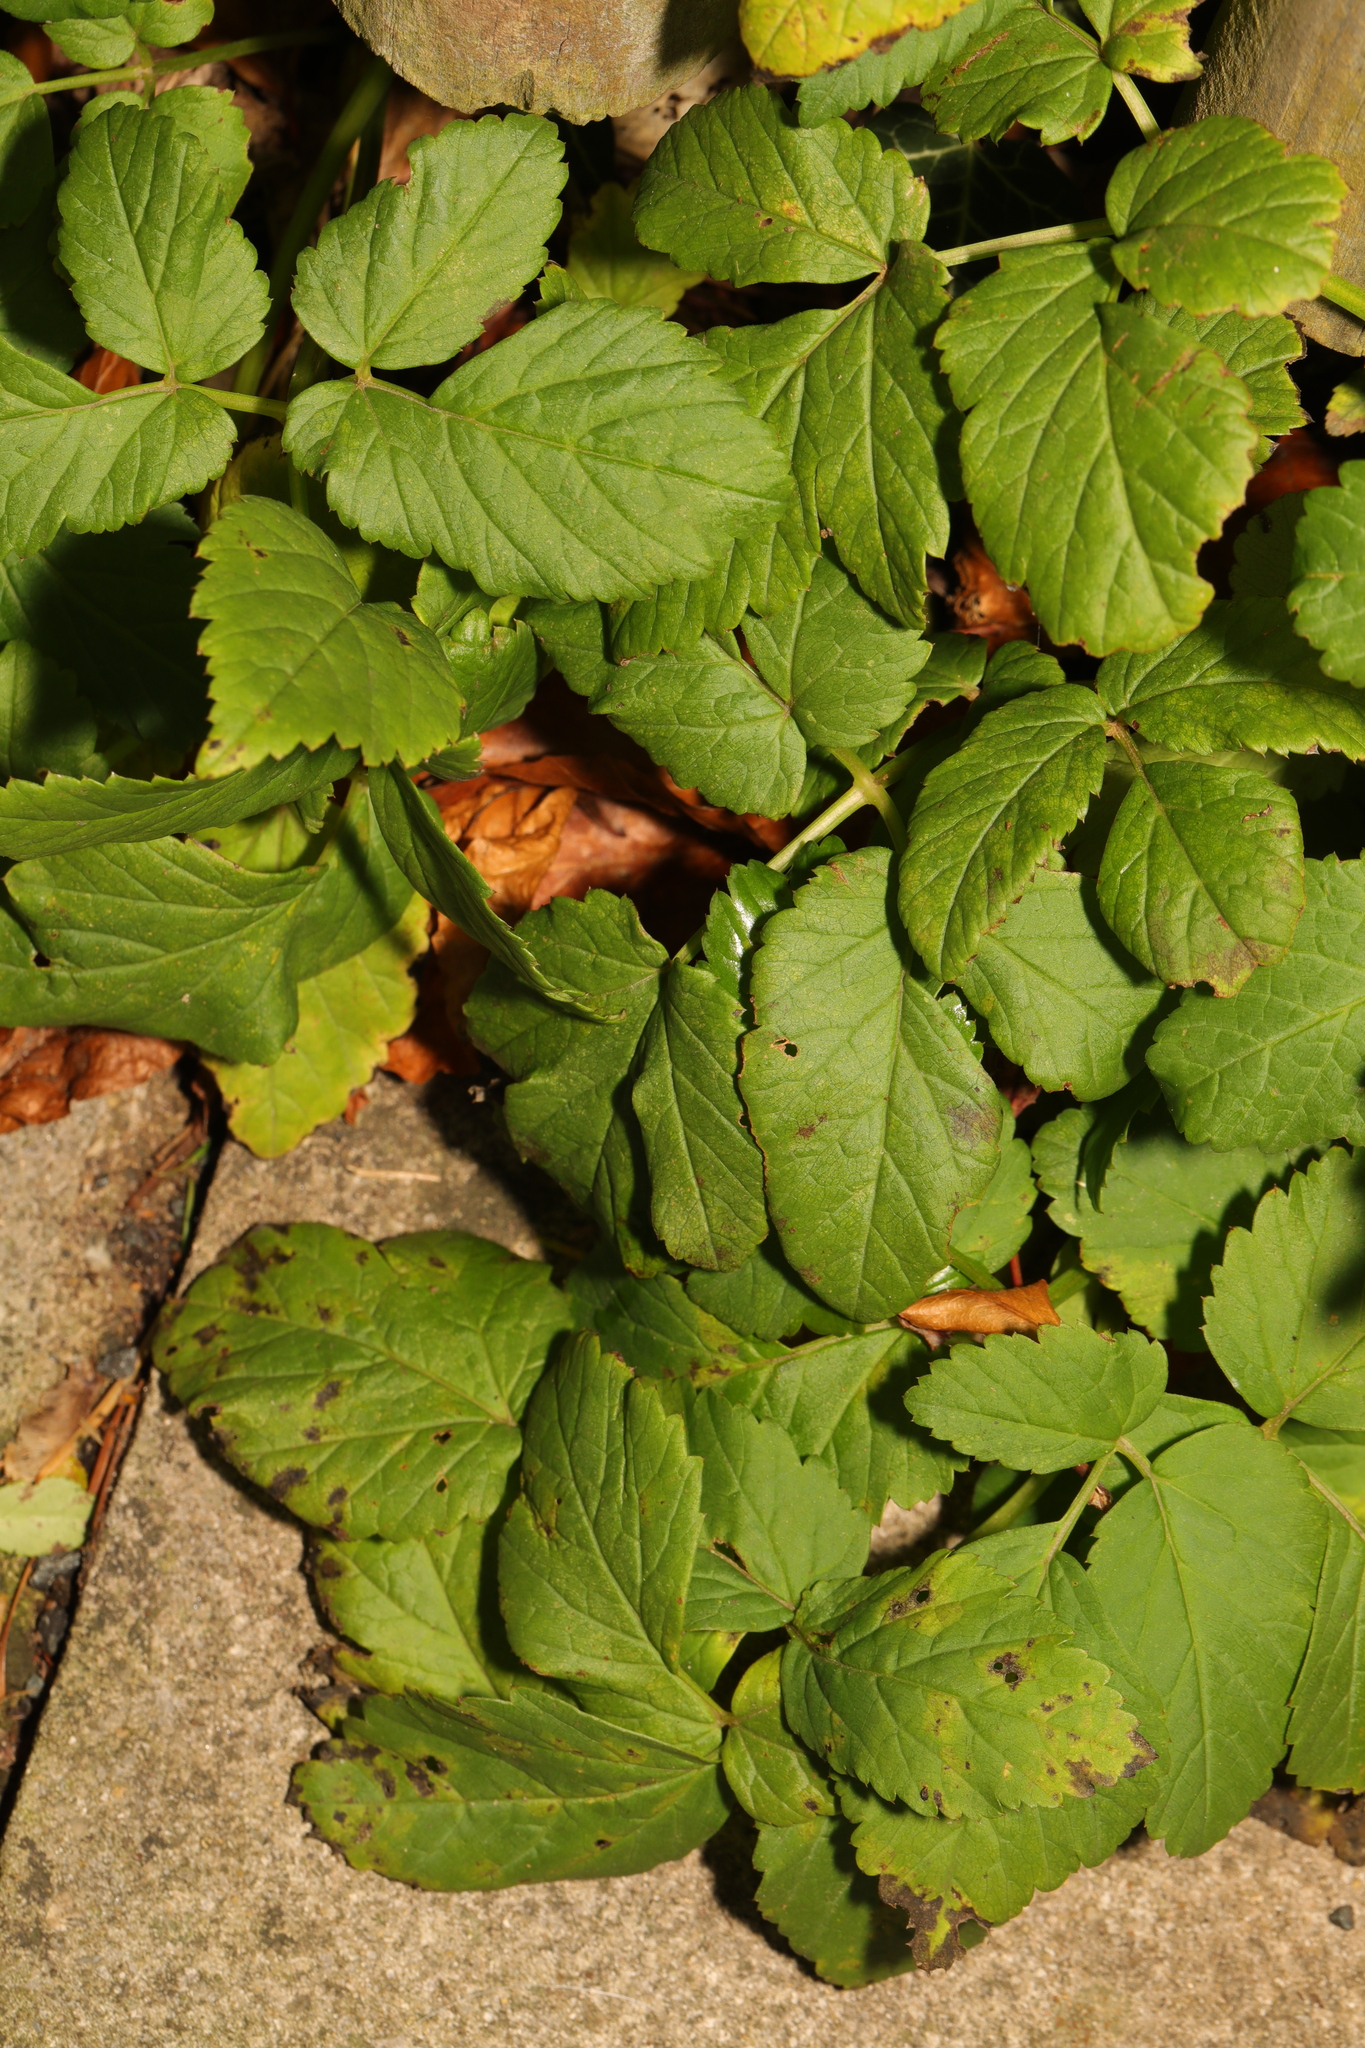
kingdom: Plantae
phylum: Tracheophyta
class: Magnoliopsida
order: Apiales
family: Apiaceae
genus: Aegopodium
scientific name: Aegopodium podagraria
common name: Ground-elder
